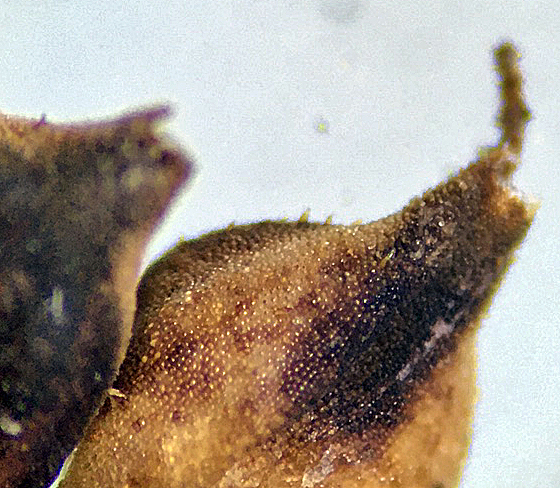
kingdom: Plantae
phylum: Tracheophyta
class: Liliopsida
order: Poales
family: Cyperaceae
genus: Carex
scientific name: Carex idahoa
